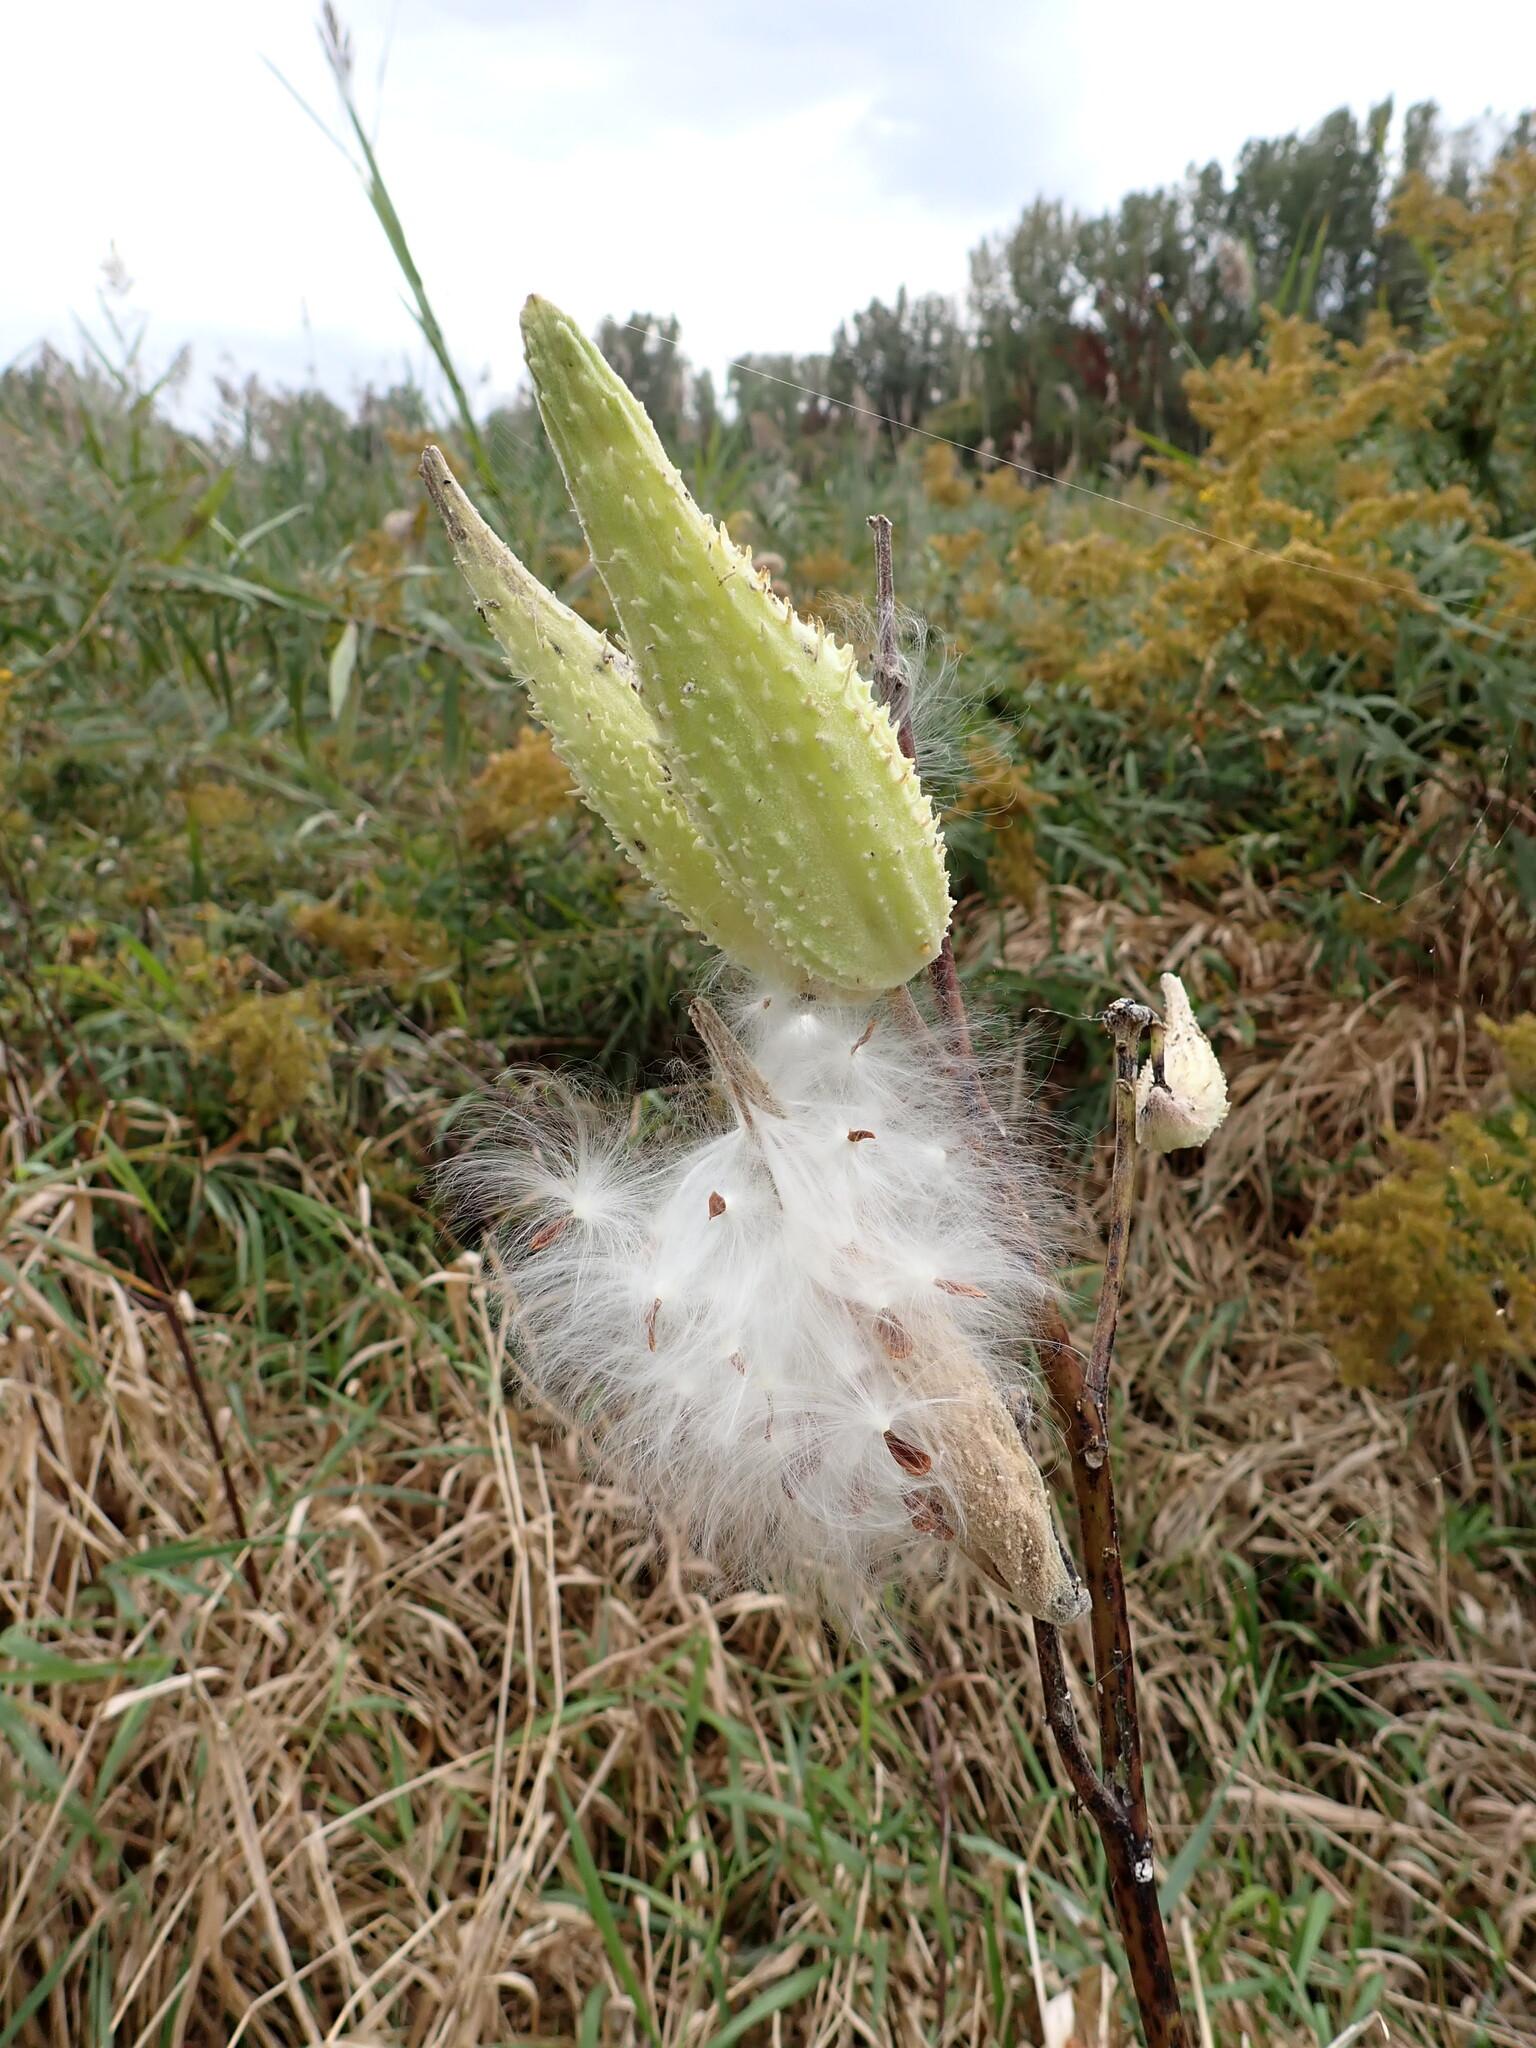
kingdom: Plantae
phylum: Tracheophyta
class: Magnoliopsida
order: Gentianales
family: Apocynaceae
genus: Asclepias
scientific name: Asclepias syriaca
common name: Common milkweed
